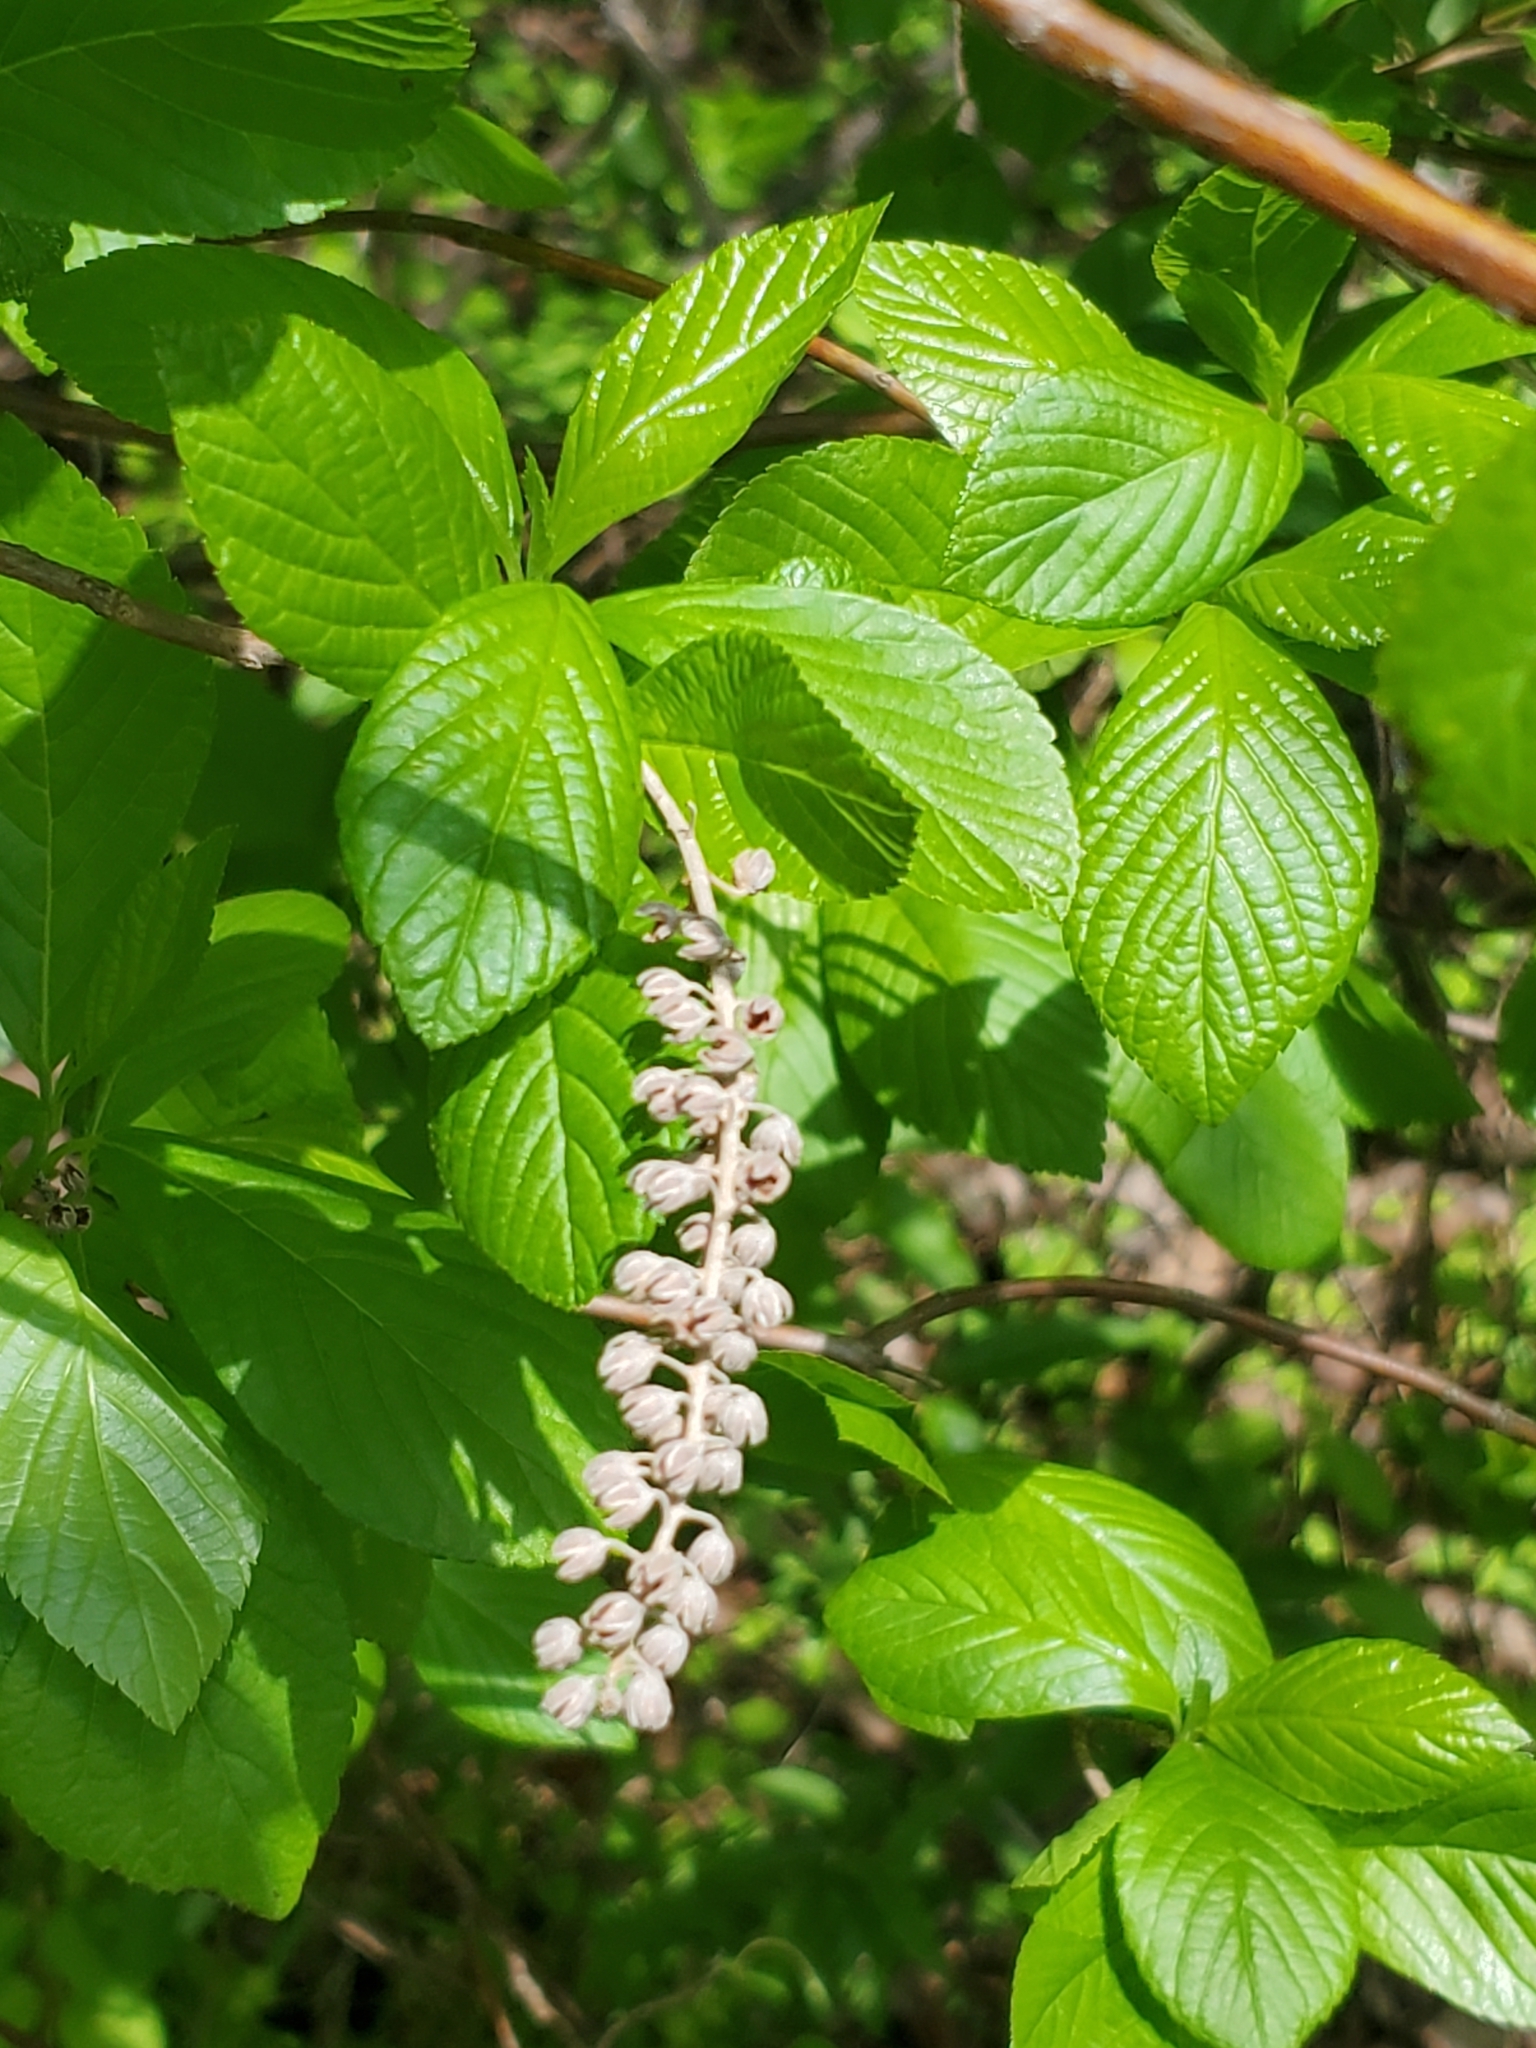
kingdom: Plantae
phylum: Tracheophyta
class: Magnoliopsida
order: Ericales
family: Clethraceae
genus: Clethra
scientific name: Clethra alnifolia
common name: Sweet pepperbush
